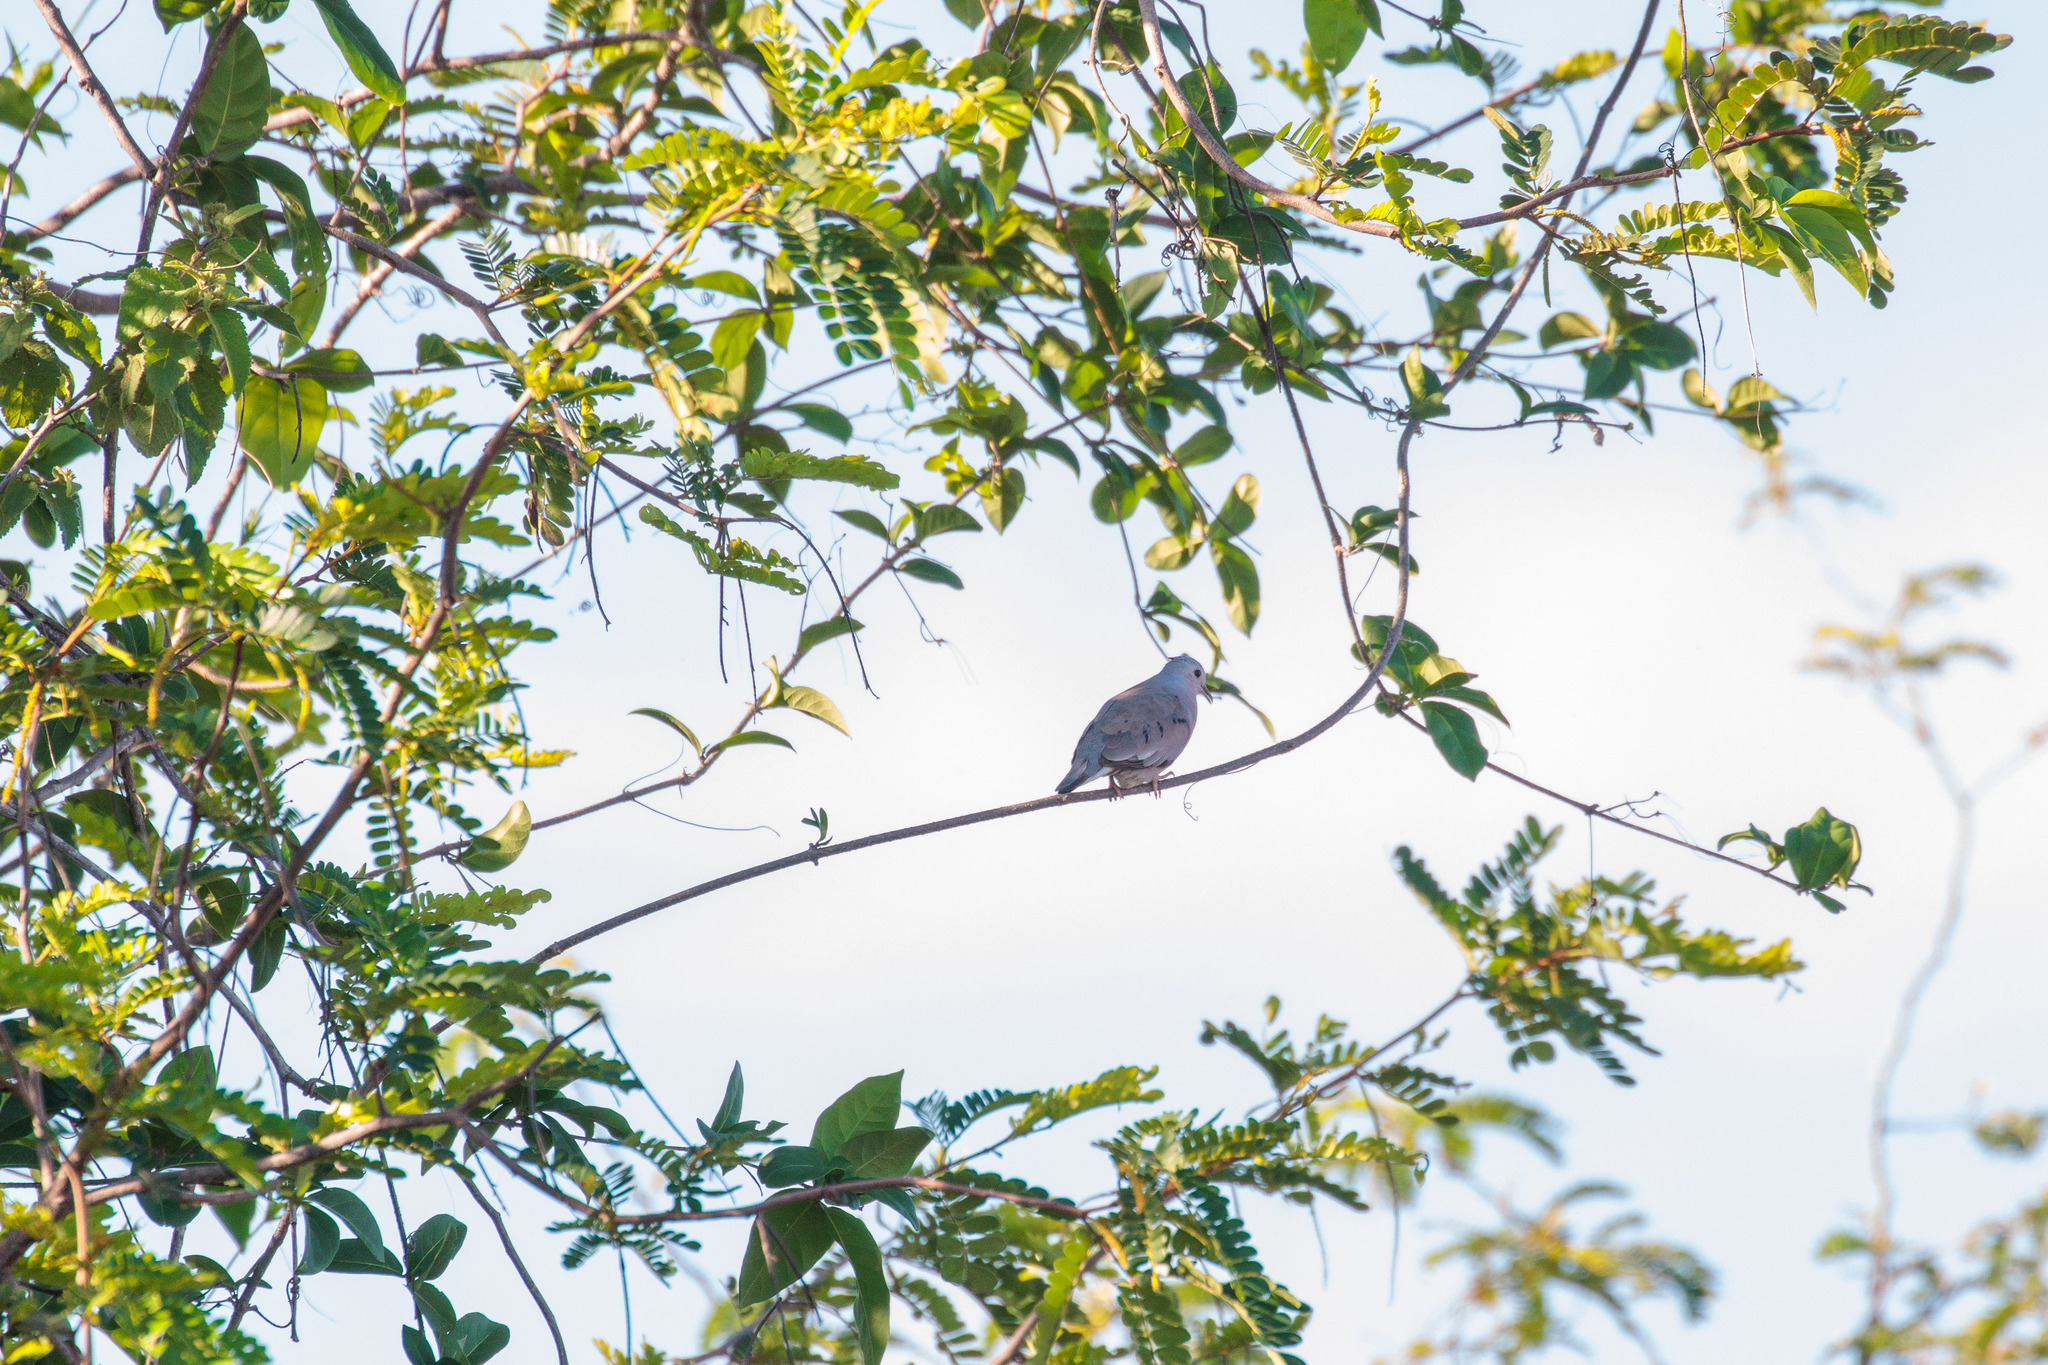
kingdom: Animalia
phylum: Chordata
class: Aves
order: Columbiformes
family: Columbidae
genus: Columbina
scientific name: Columbina minuta
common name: Plain-breasted ground dove
